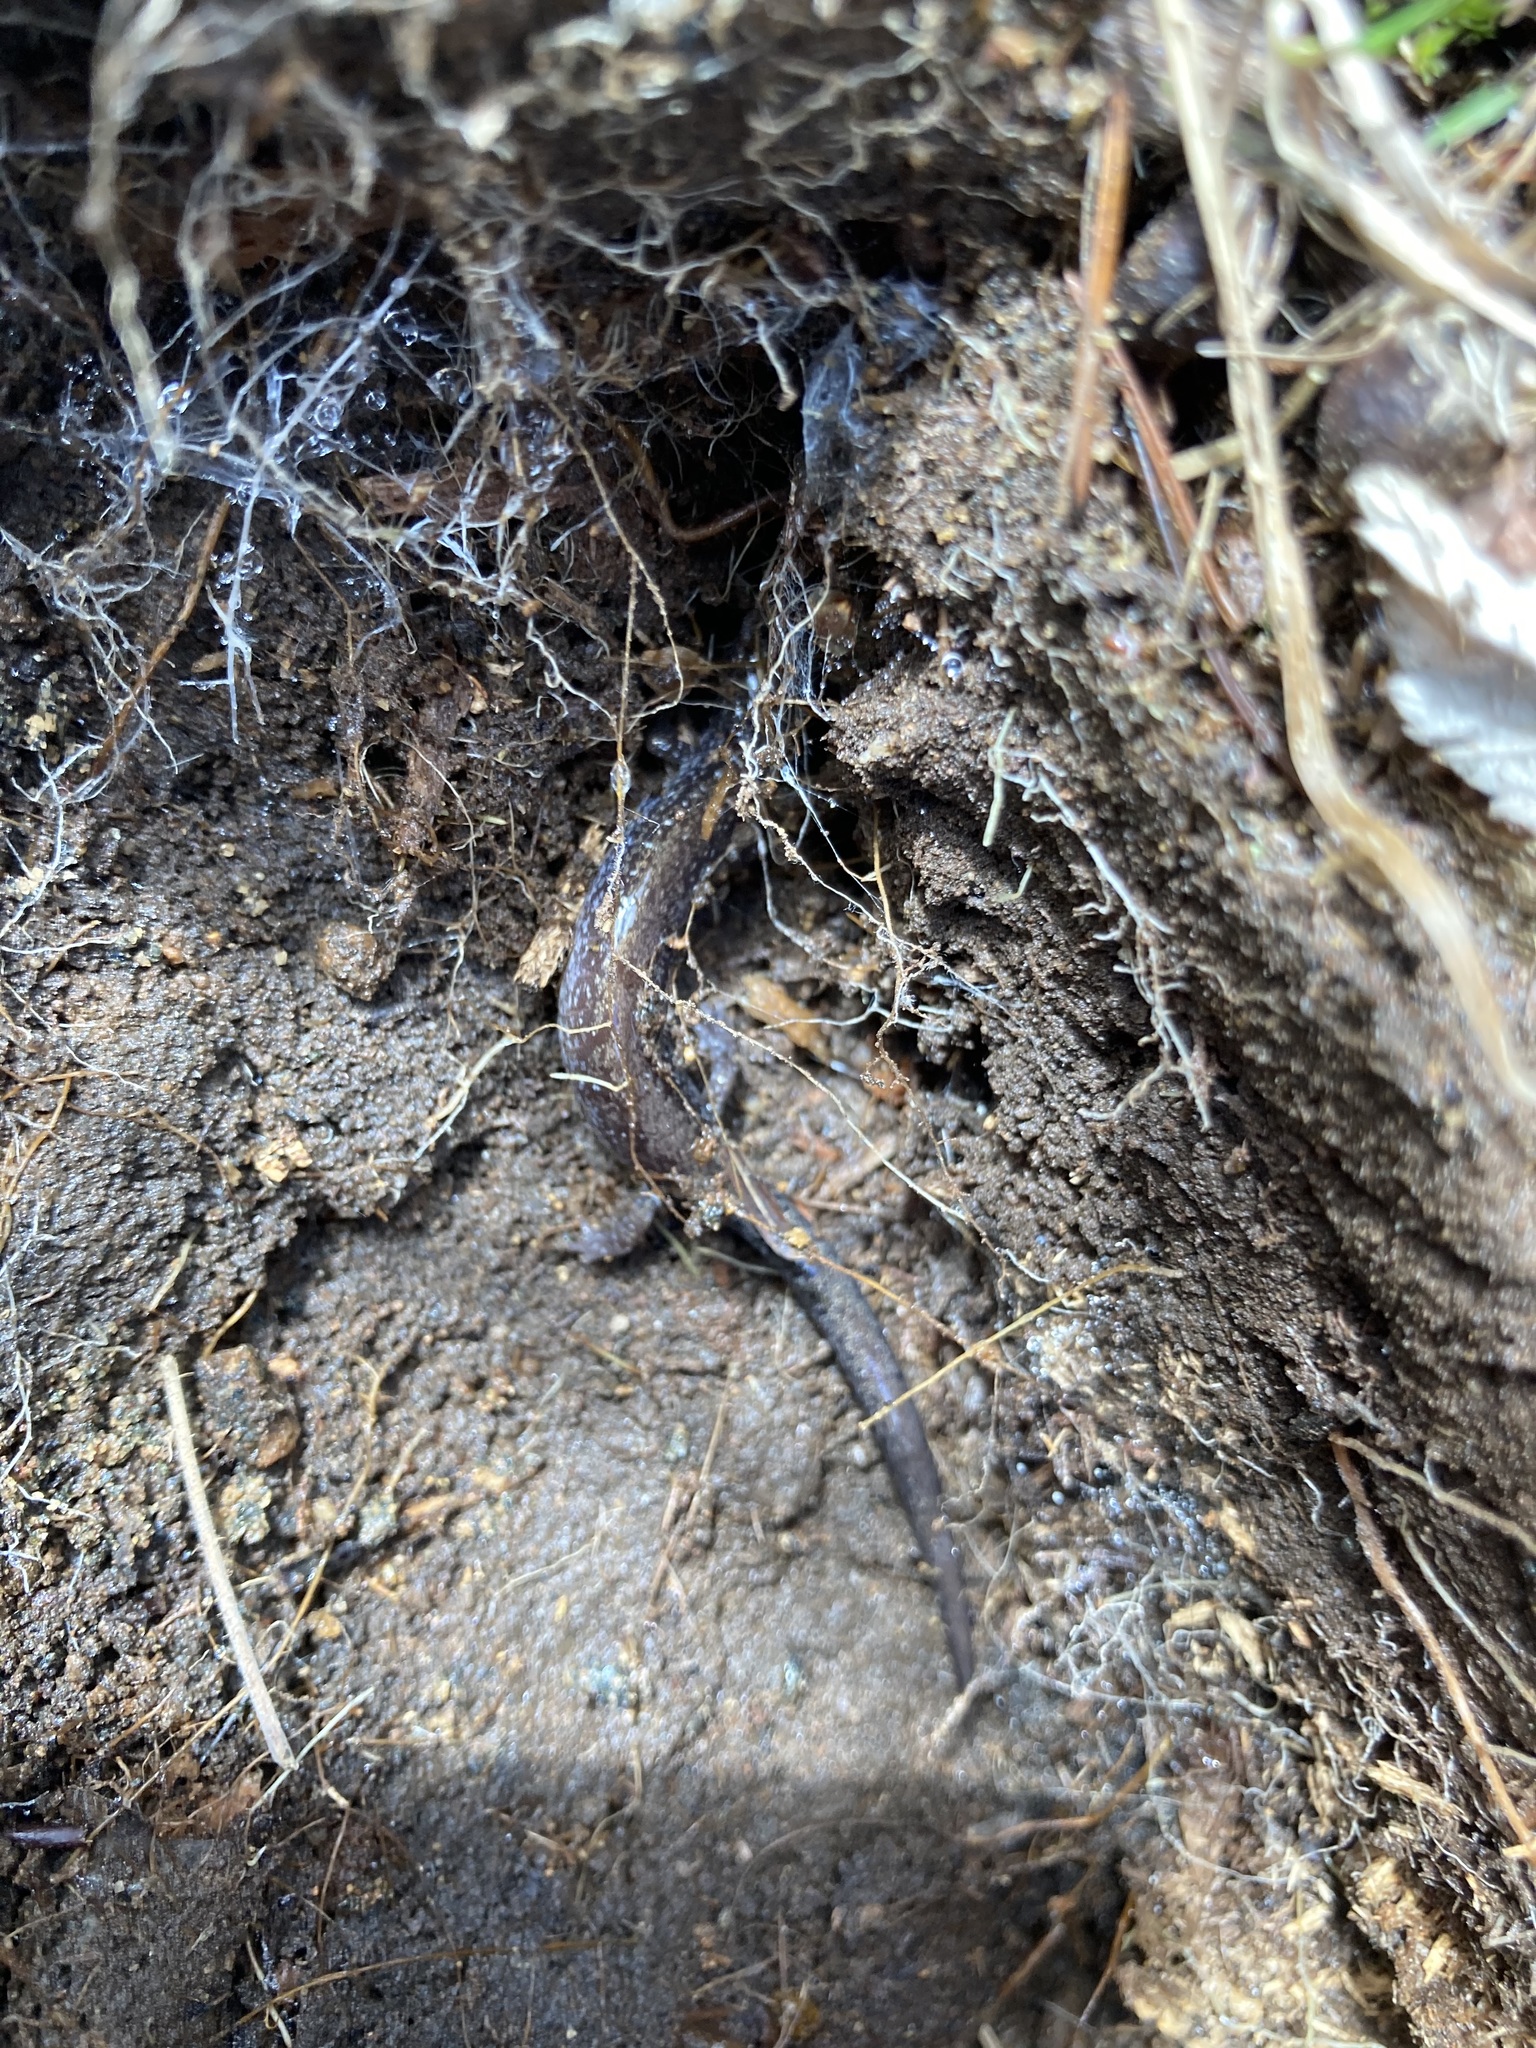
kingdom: Animalia
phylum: Chordata
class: Amphibia
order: Caudata
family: Plethodontidae
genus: Plethodon
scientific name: Plethodon cinereus
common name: Redback salamander
